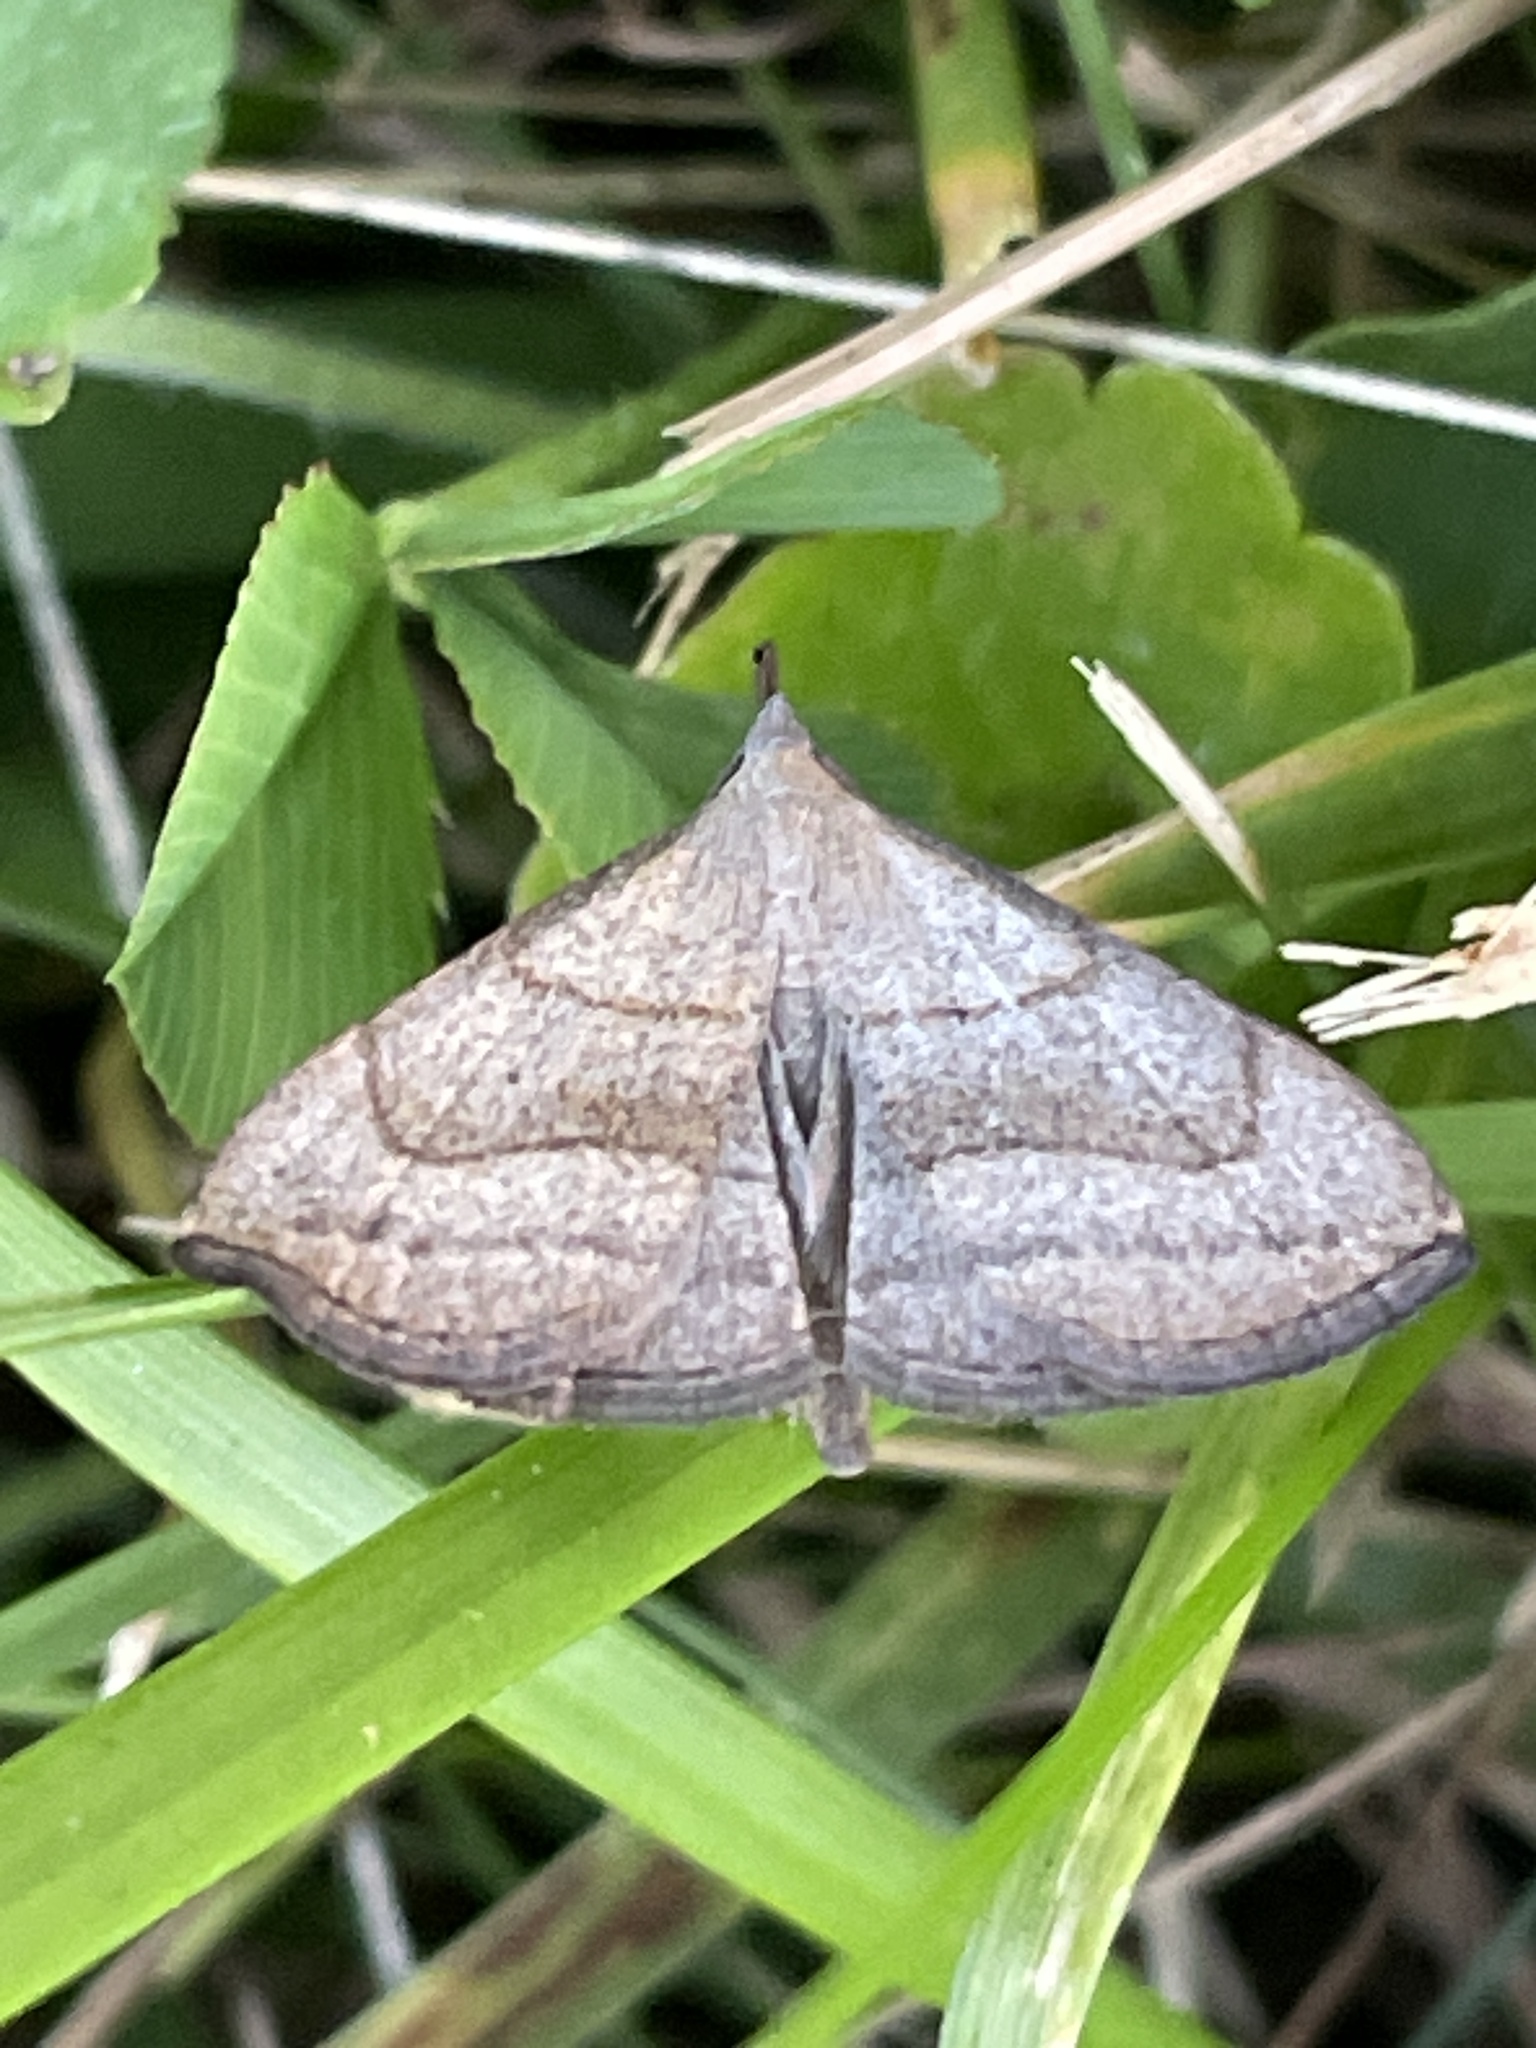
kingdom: Animalia
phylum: Arthropoda
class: Insecta
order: Lepidoptera
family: Erebidae
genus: Macrochilo
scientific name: Macrochilo litophora
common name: Brown-lined owlet
